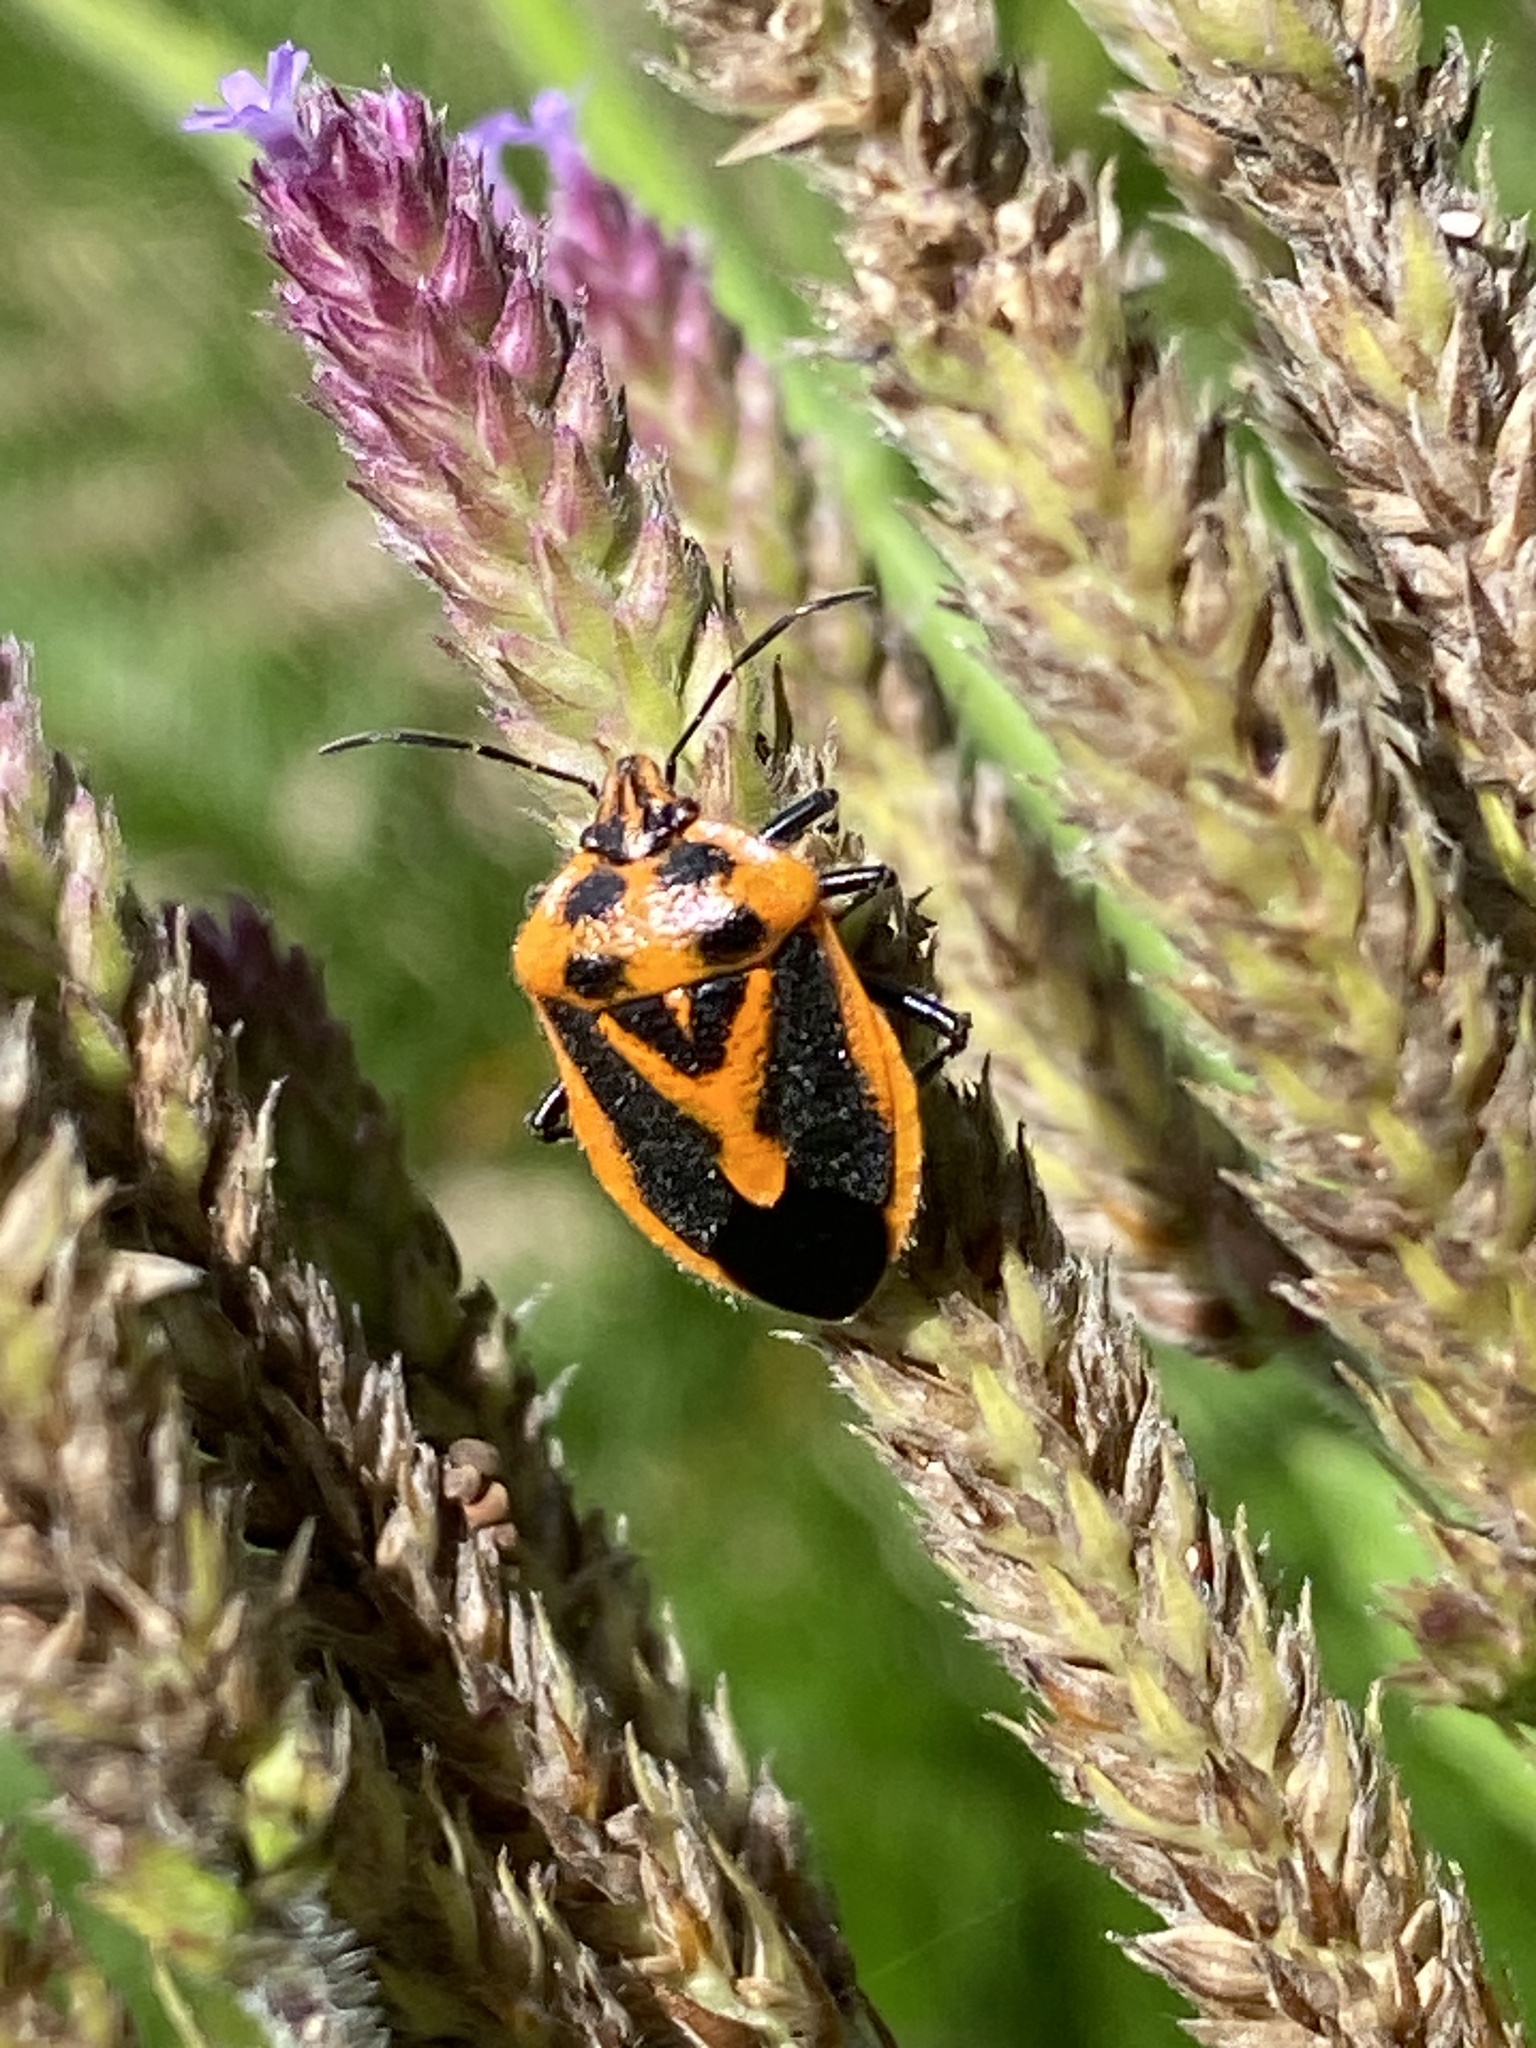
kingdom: Animalia
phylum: Arthropoda
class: Insecta
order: Hemiptera
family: Pentatomidae
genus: Agonoscelis
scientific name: Agonoscelis rutila
